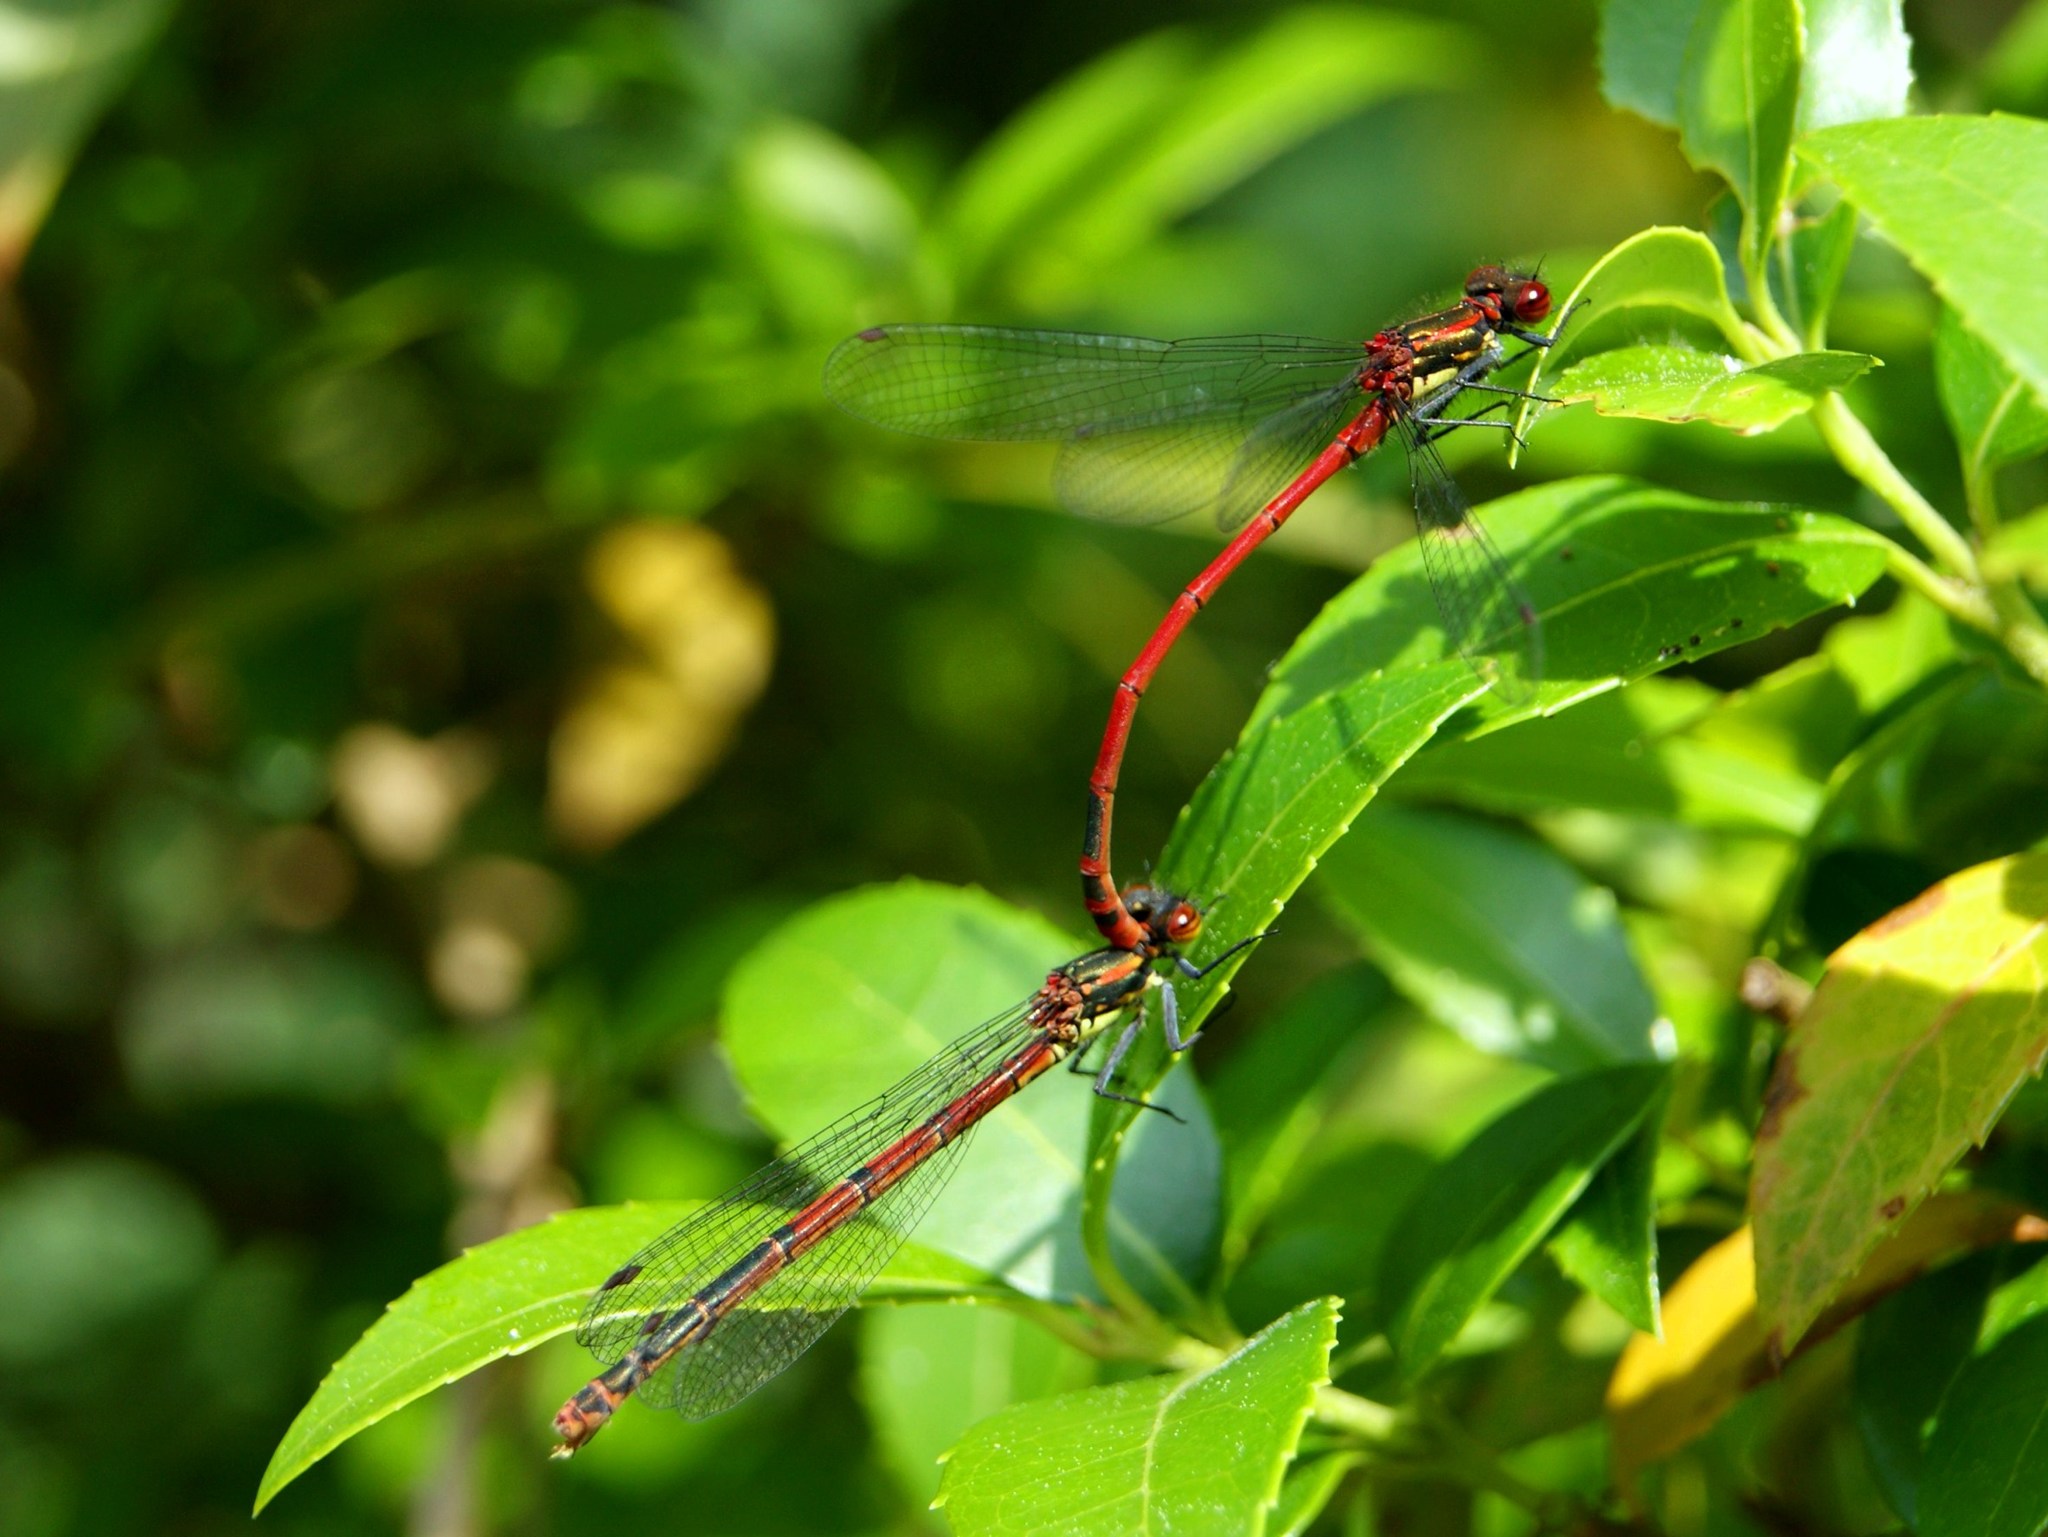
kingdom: Animalia
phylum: Arthropoda
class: Insecta
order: Odonata
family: Coenagrionidae
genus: Pyrrhosoma
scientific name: Pyrrhosoma nymphula
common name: Large red damsel
